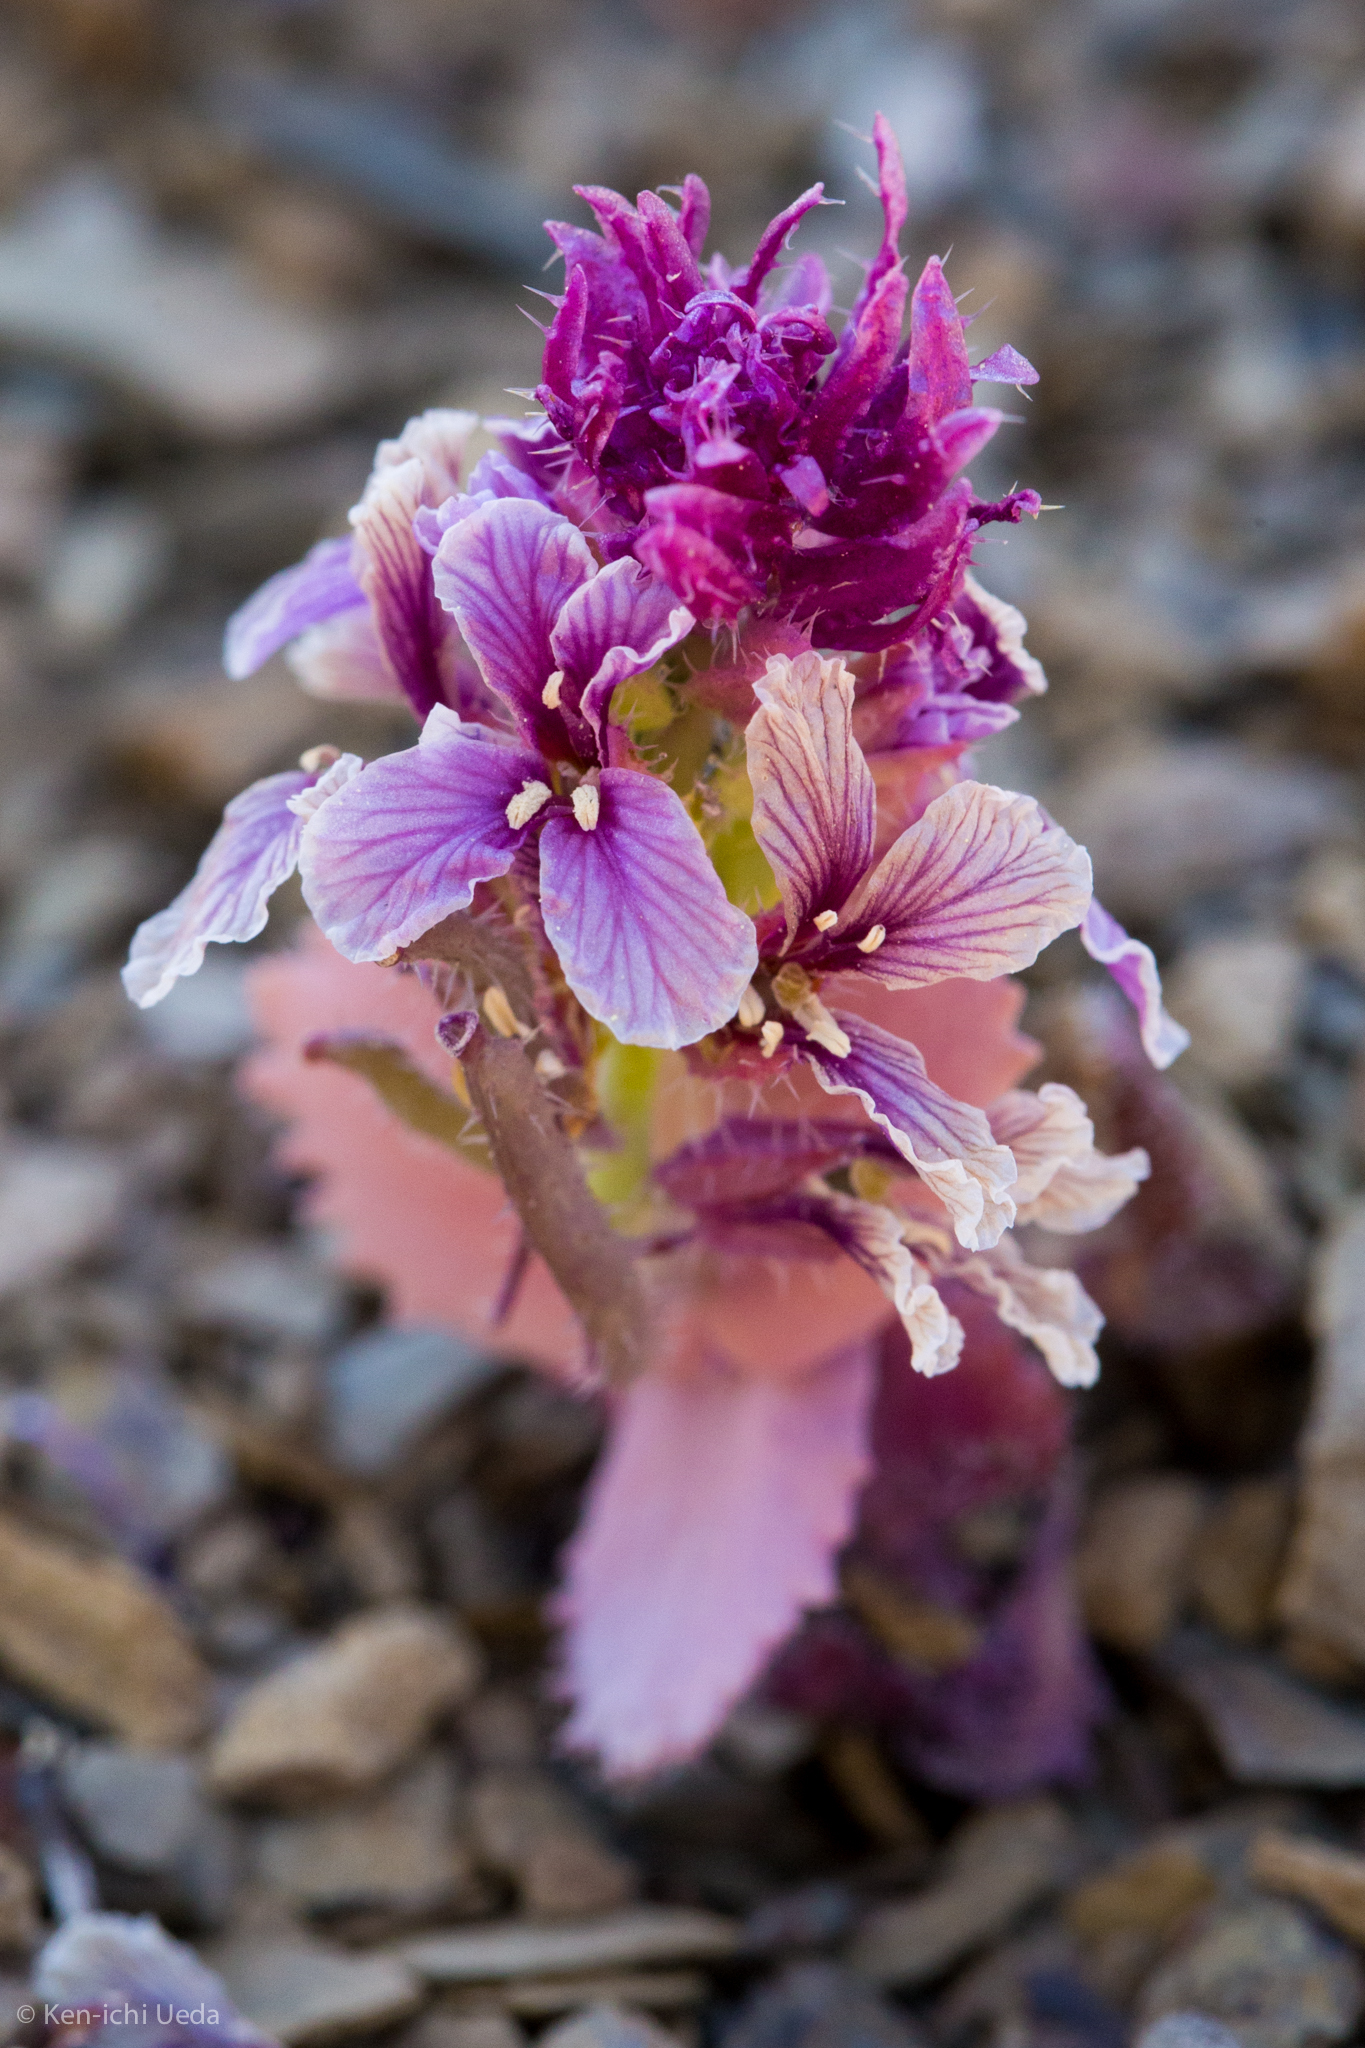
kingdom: Plantae
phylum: Tracheophyta
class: Magnoliopsida
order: Brassicales
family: Brassicaceae
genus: Streptanthus
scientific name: Streptanthus callistus
